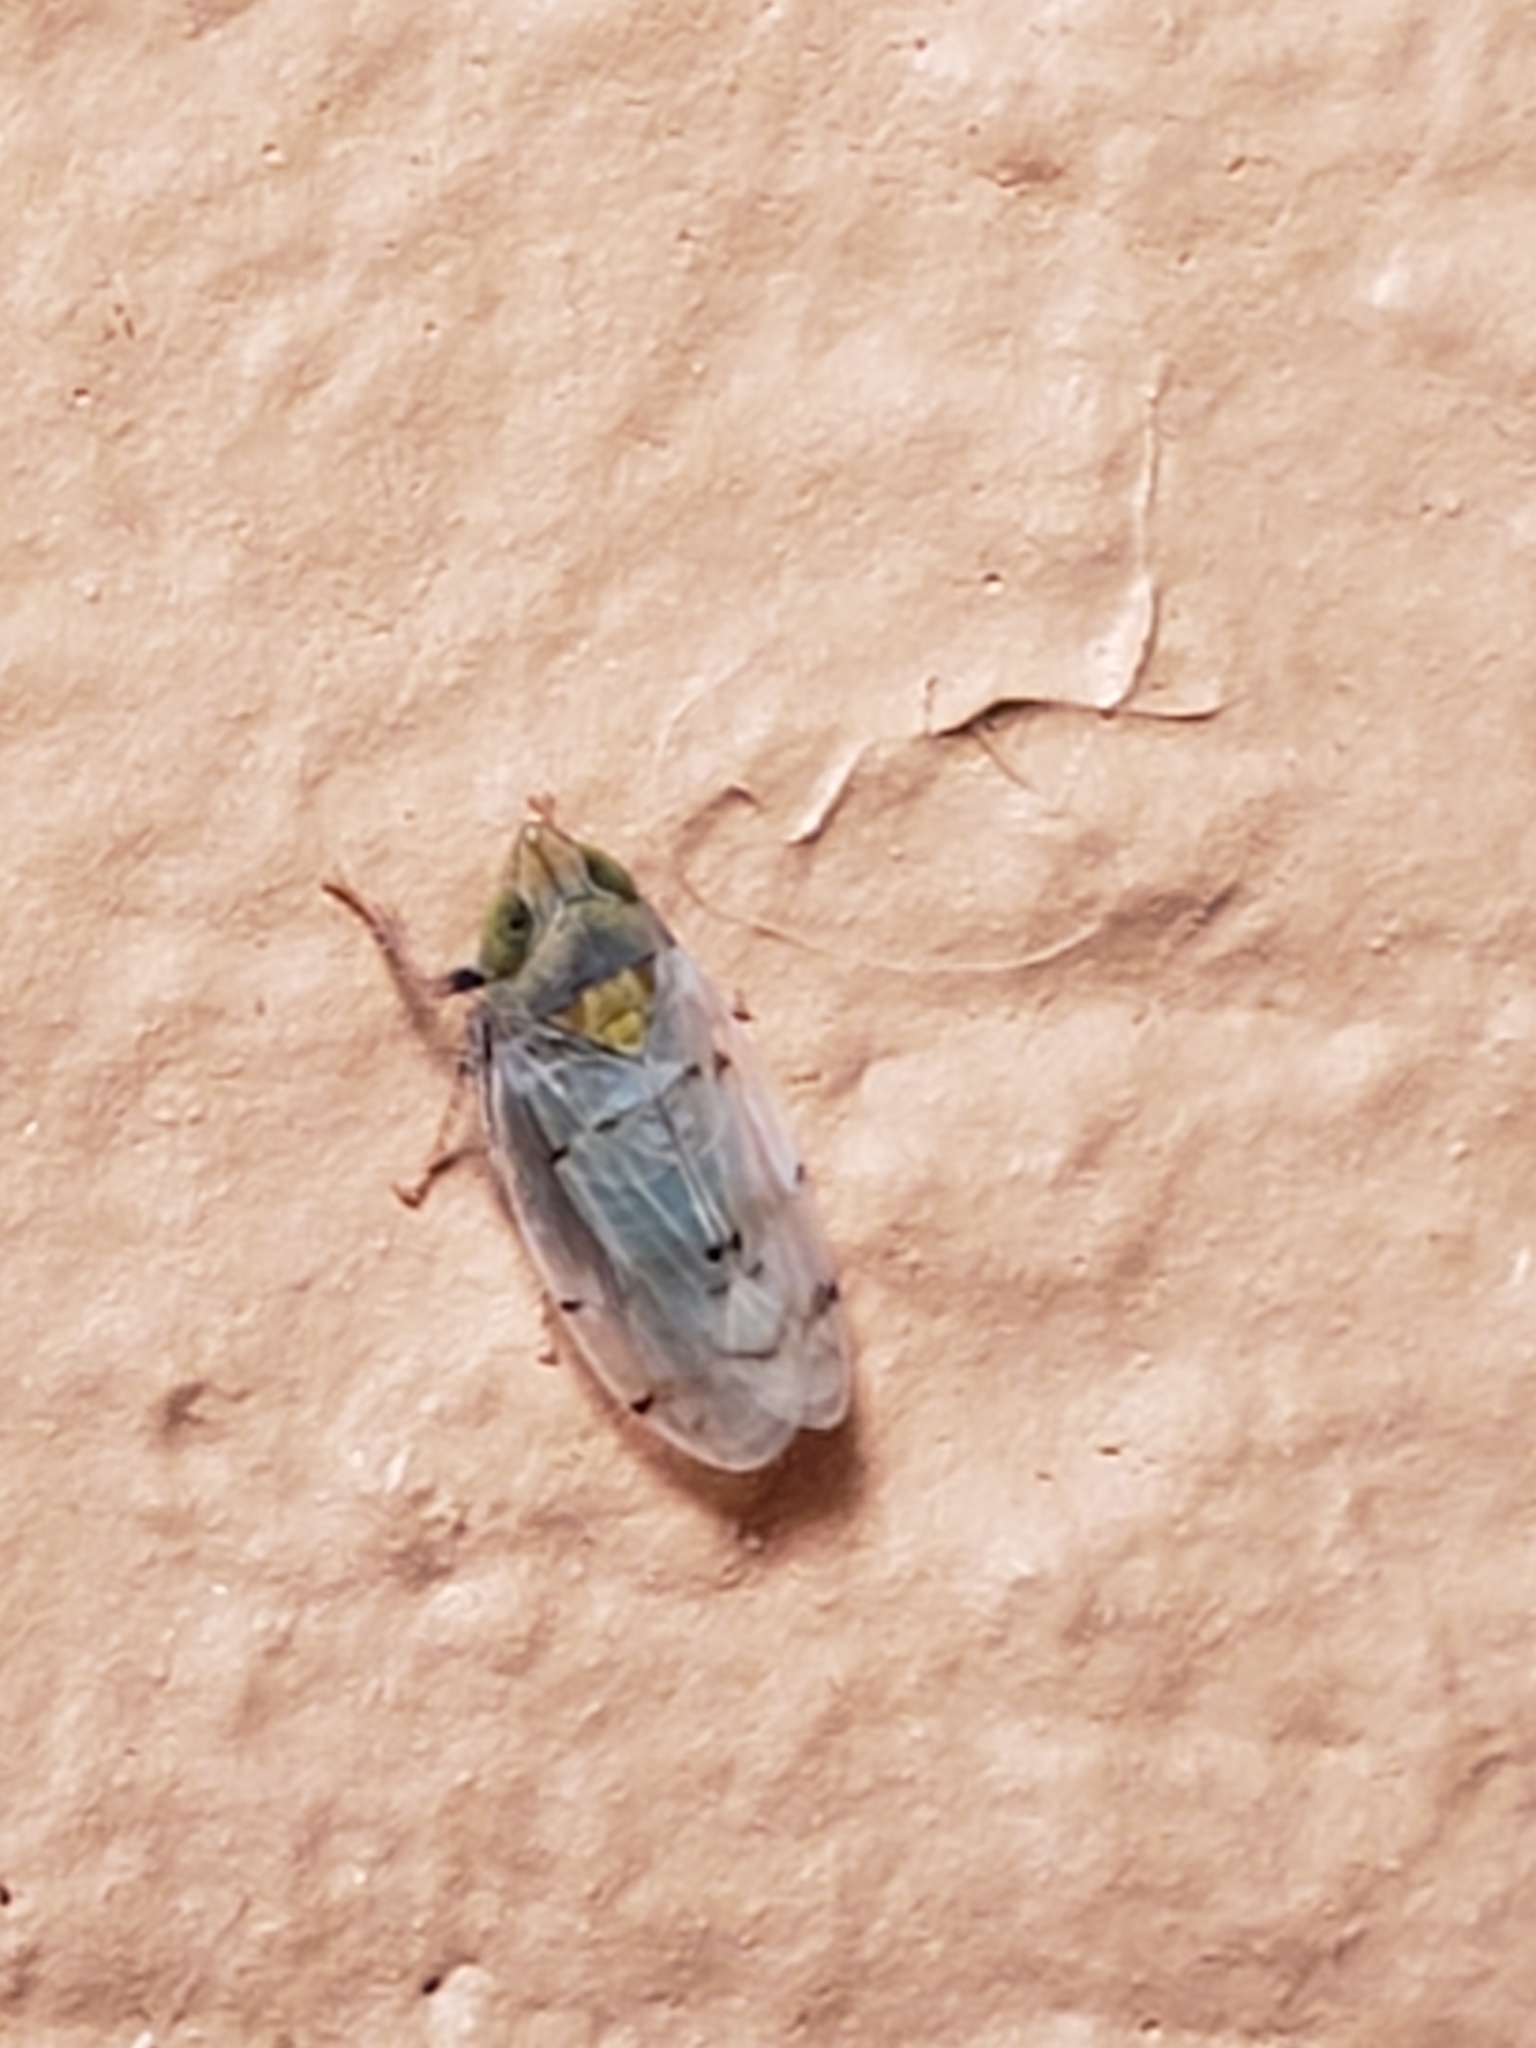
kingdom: Animalia
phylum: Arthropoda
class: Insecta
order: Hemiptera
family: Cicadellidae
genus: Japananus
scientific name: Japananus hyalinus
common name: The japanese maple leafhopper
